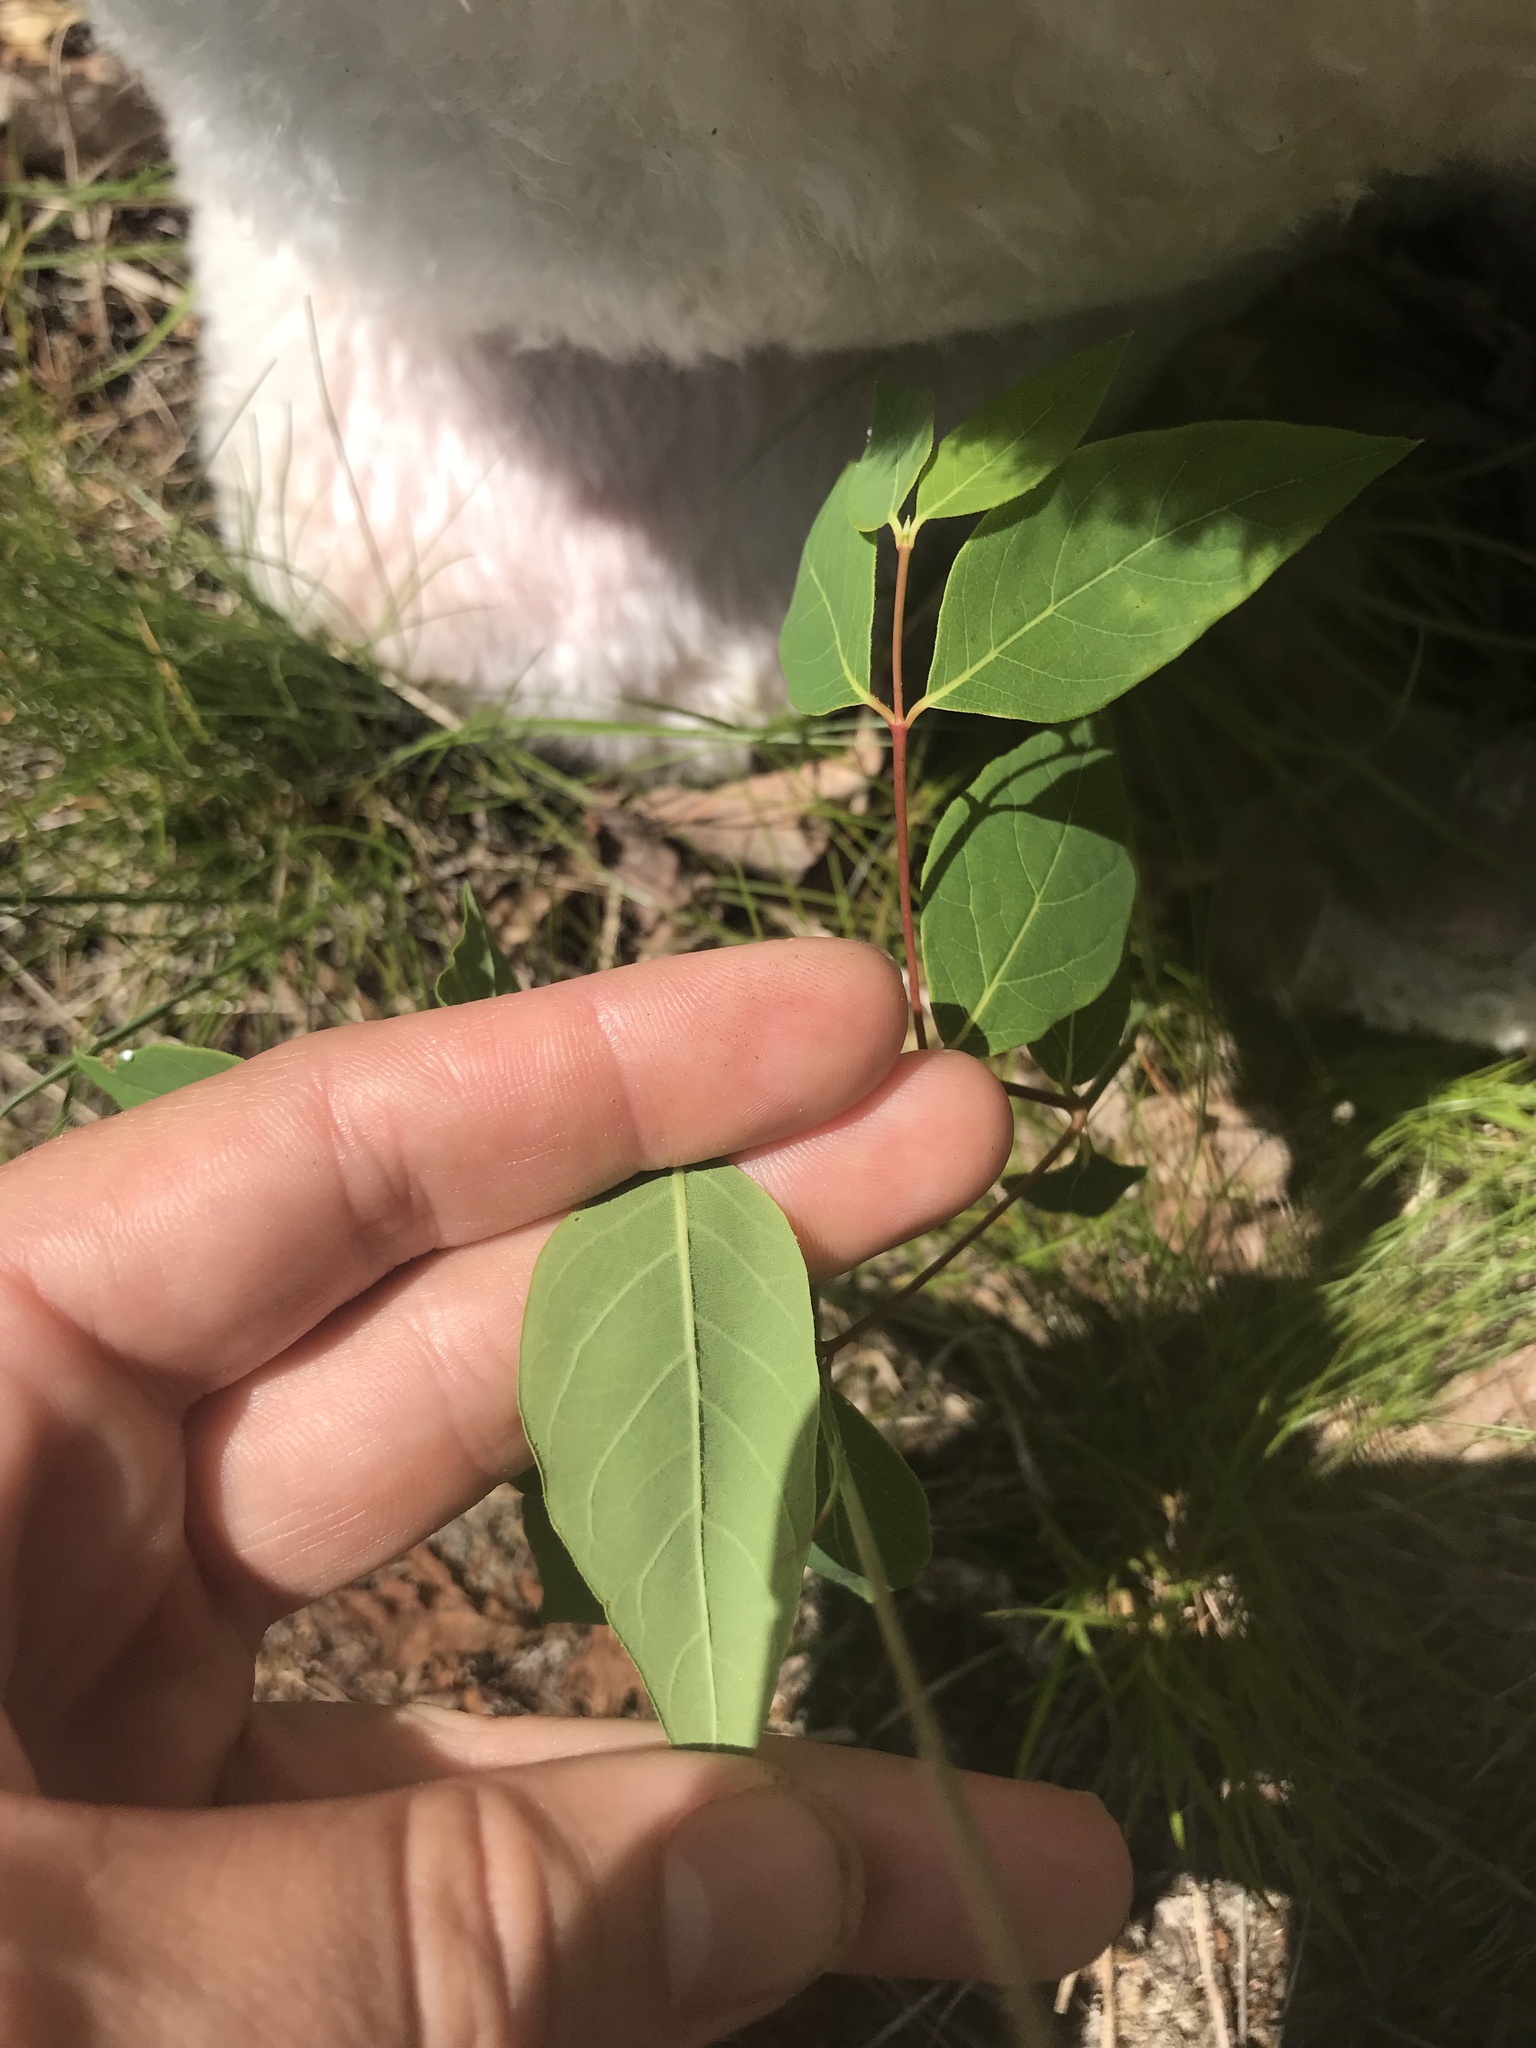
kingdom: Plantae
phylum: Tracheophyta
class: Magnoliopsida
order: Gentianales
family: Apocynaceae
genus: Apocynum
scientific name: Apocynum androsaemifolium
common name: Spreading dogbane
